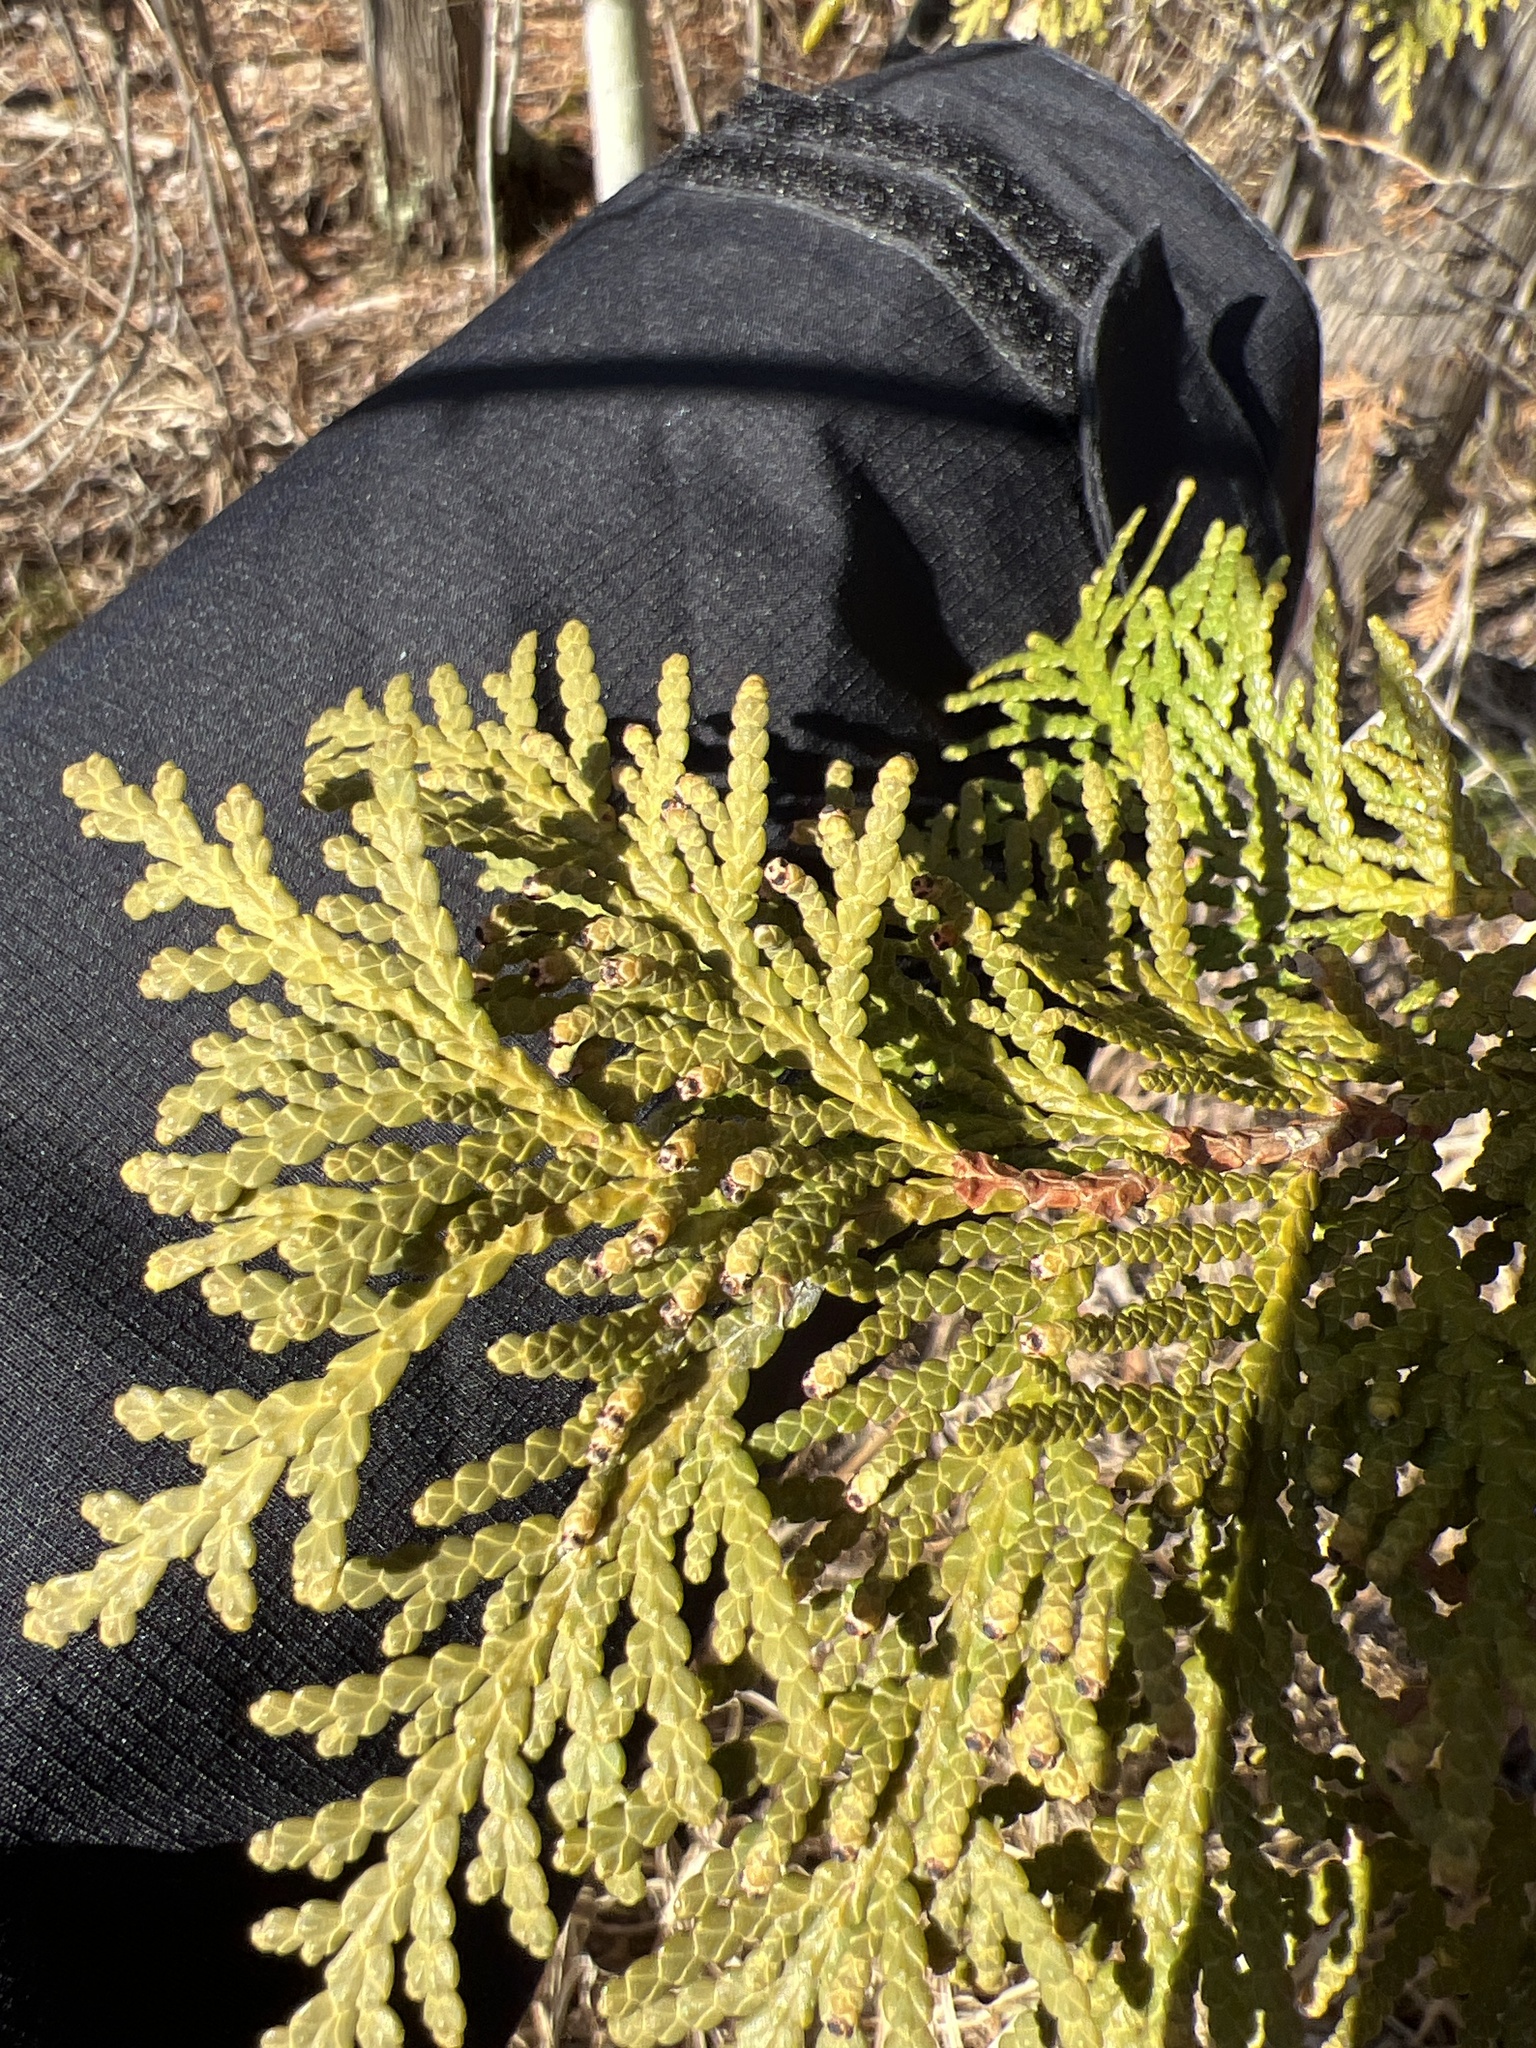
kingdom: Plantae
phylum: Tracheophyta
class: Pinopsida
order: Pinales
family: Cupressaceae
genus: Thuja
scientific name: Thuja occidentalis
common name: Northern white-cedar
